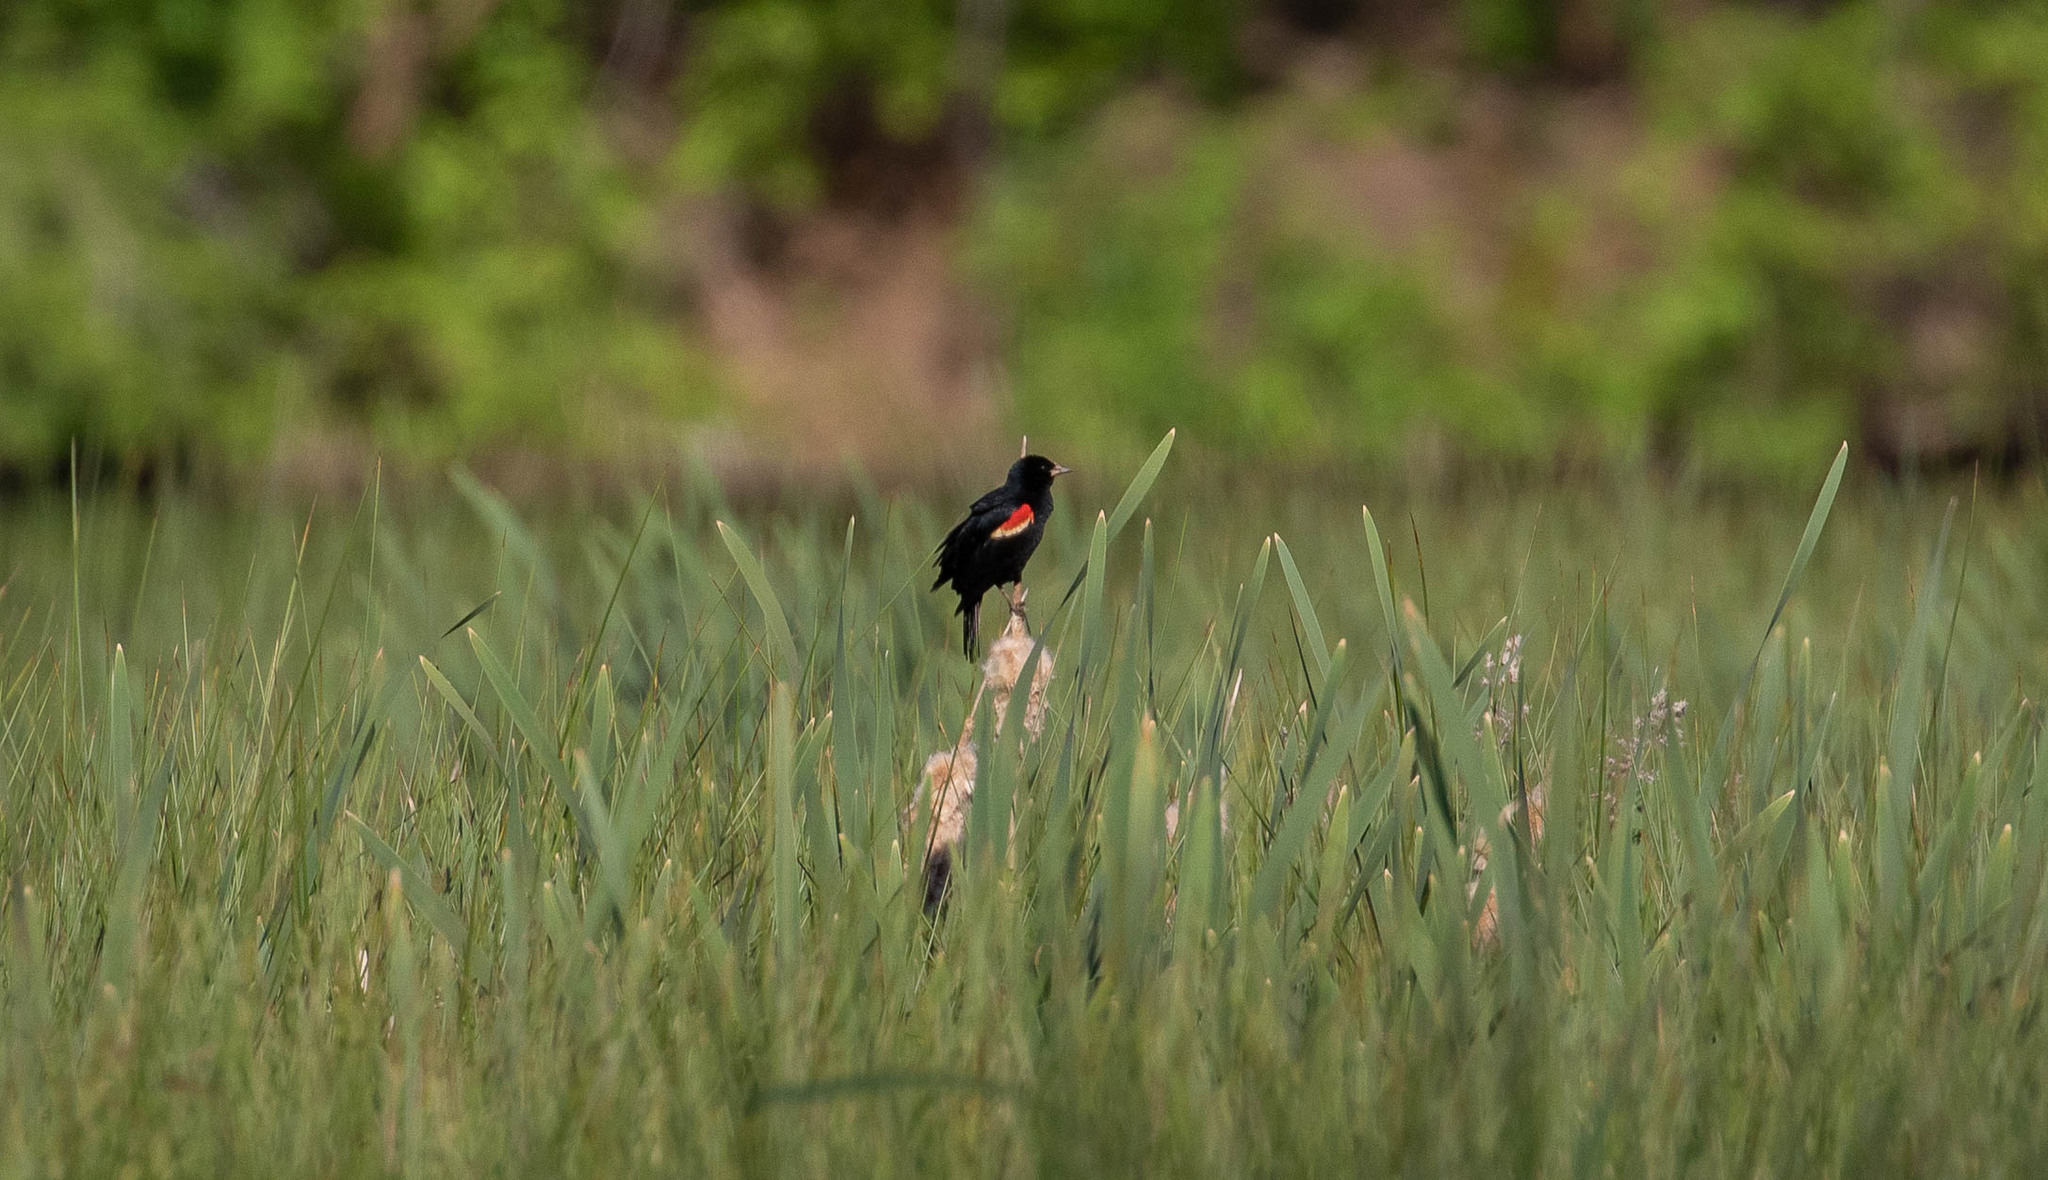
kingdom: Animalia
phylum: Chordata
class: Aves
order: Passeriformes
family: Icteridae
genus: Agelaius
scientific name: Agelaius phoeniceus
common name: Red-winged blackbird
